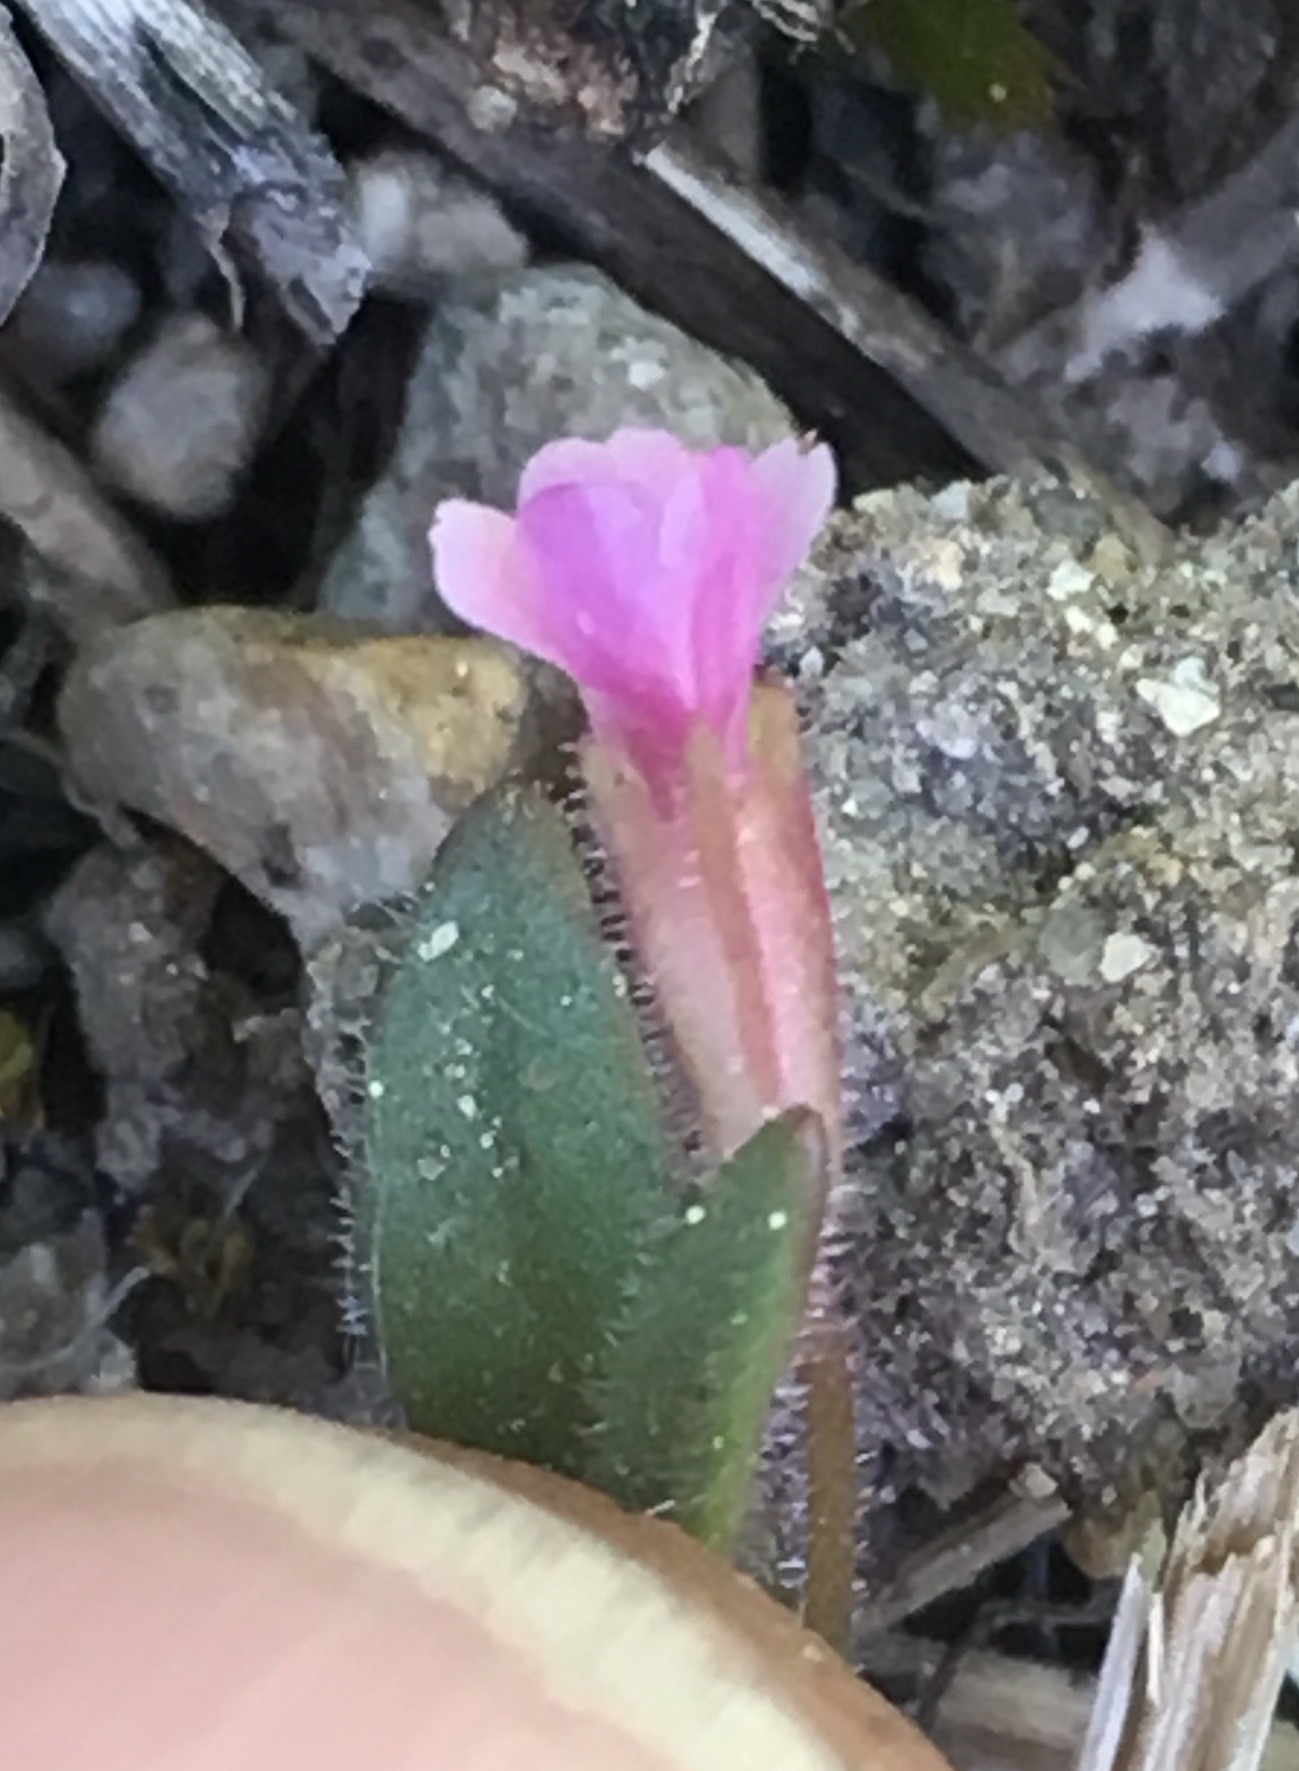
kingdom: Plantae
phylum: Tracheophyta
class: Magnoliopsida
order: Lamiales
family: Phrymaceae
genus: Erythranthe
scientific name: Erythranthe breweri
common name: Brewer's monkeyflower
